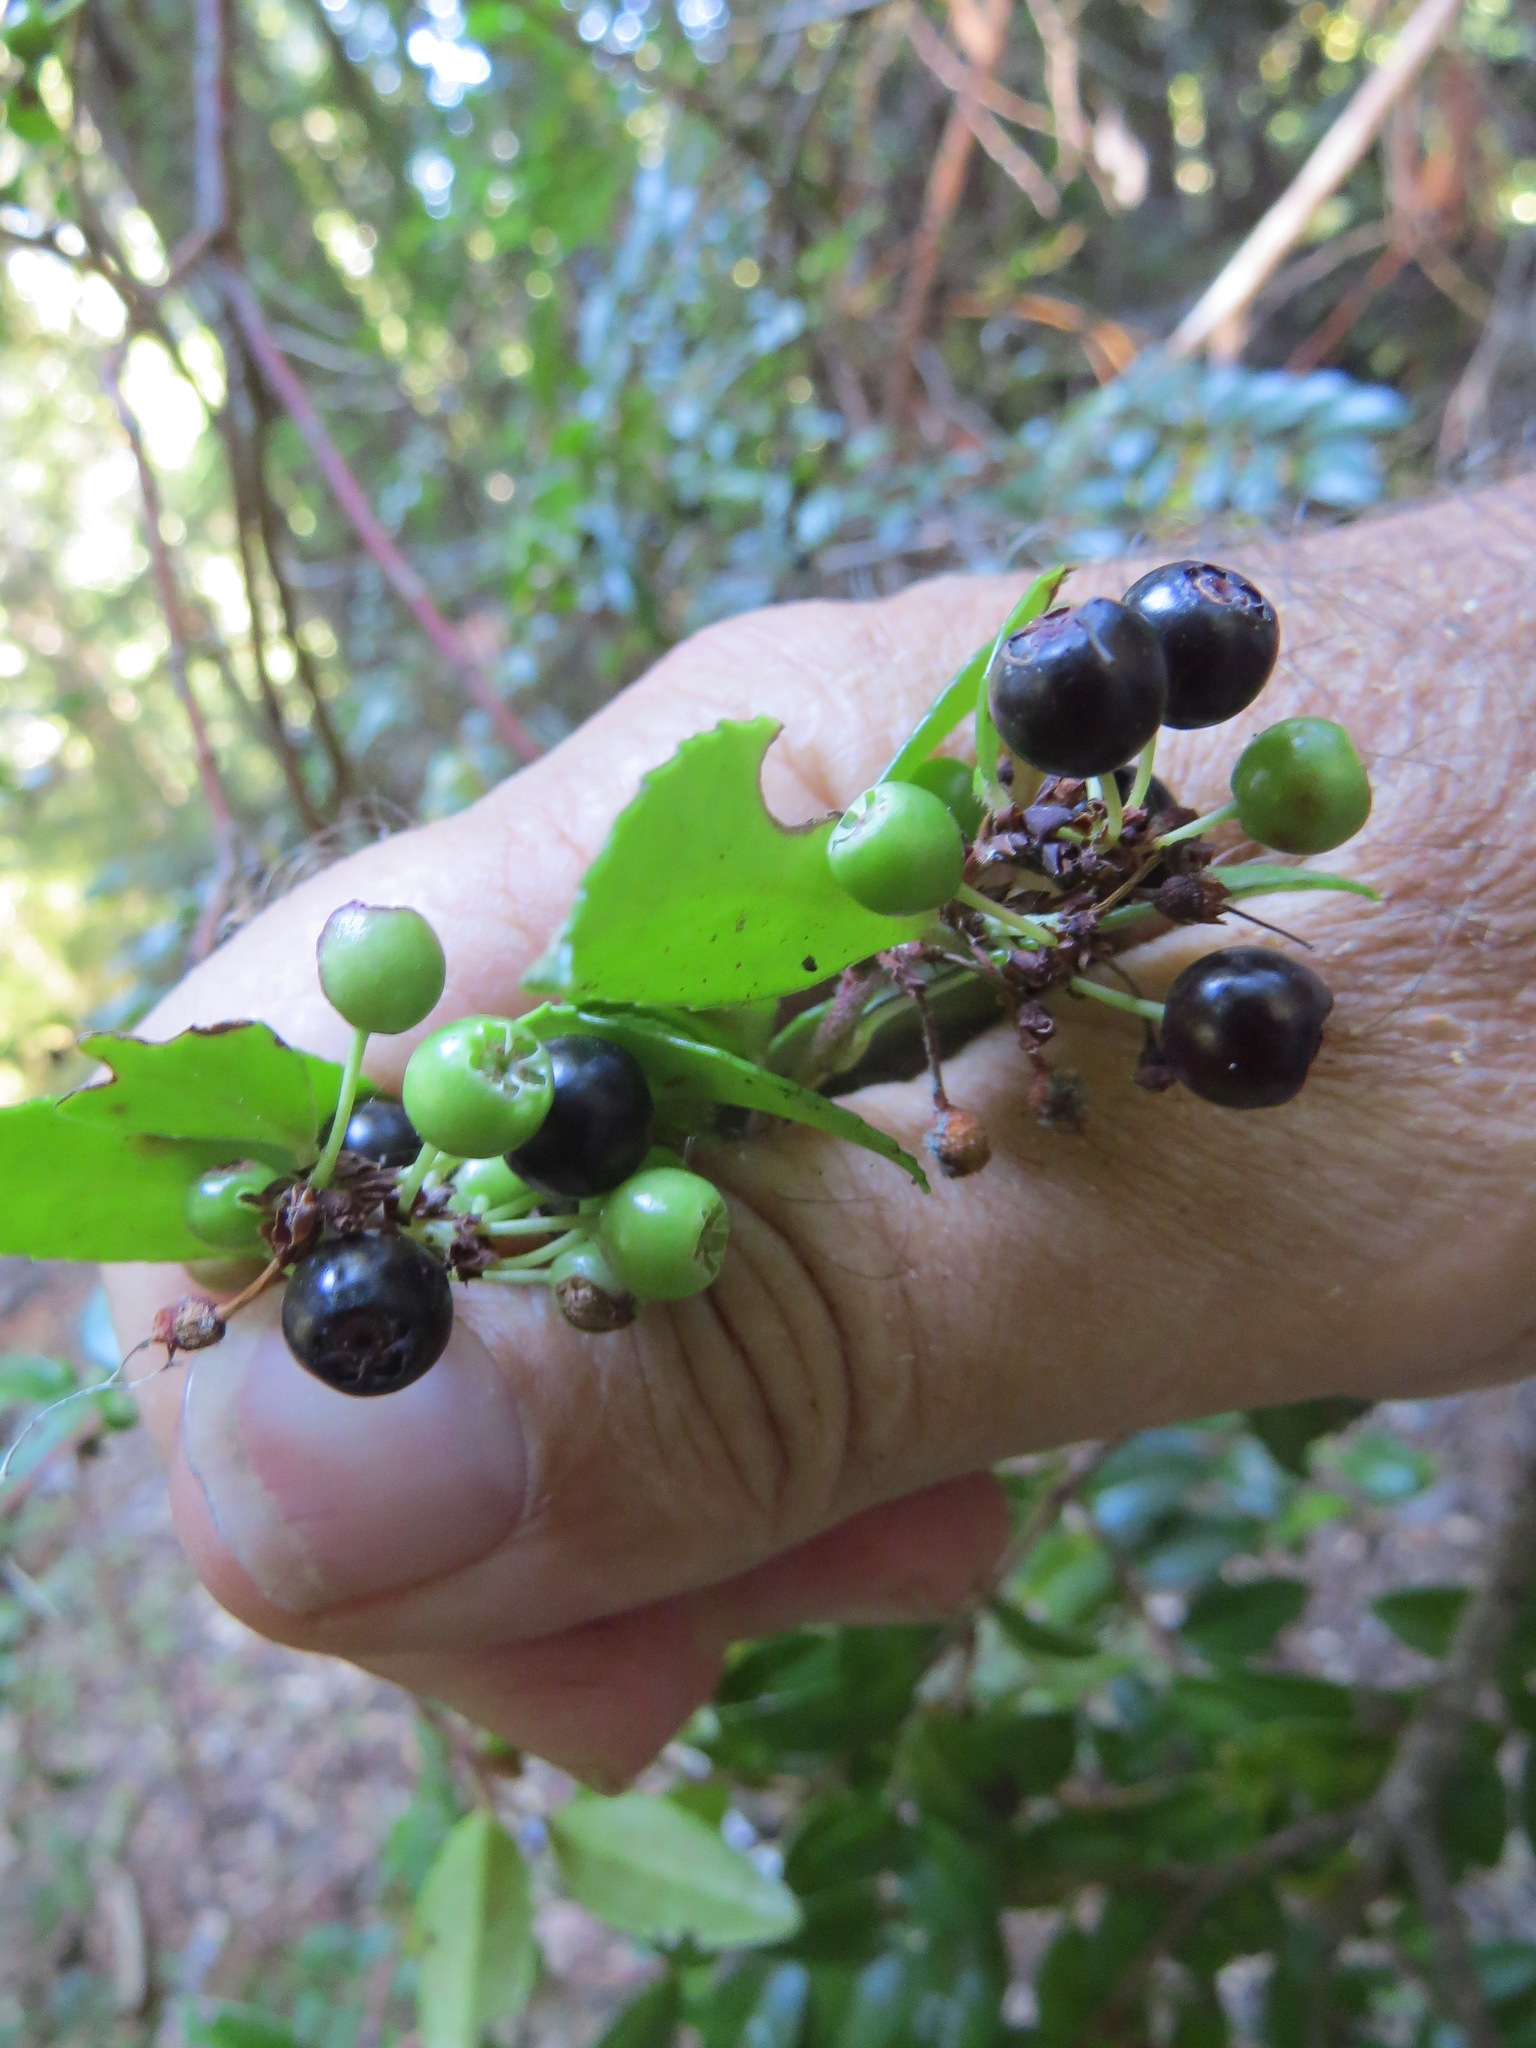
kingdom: Plantae
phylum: Tracheophyta
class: Magnoliopsida
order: Ericales
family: Ericaceae
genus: Vaccinium
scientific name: Vaccinium ovatum
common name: California-huckleberry
